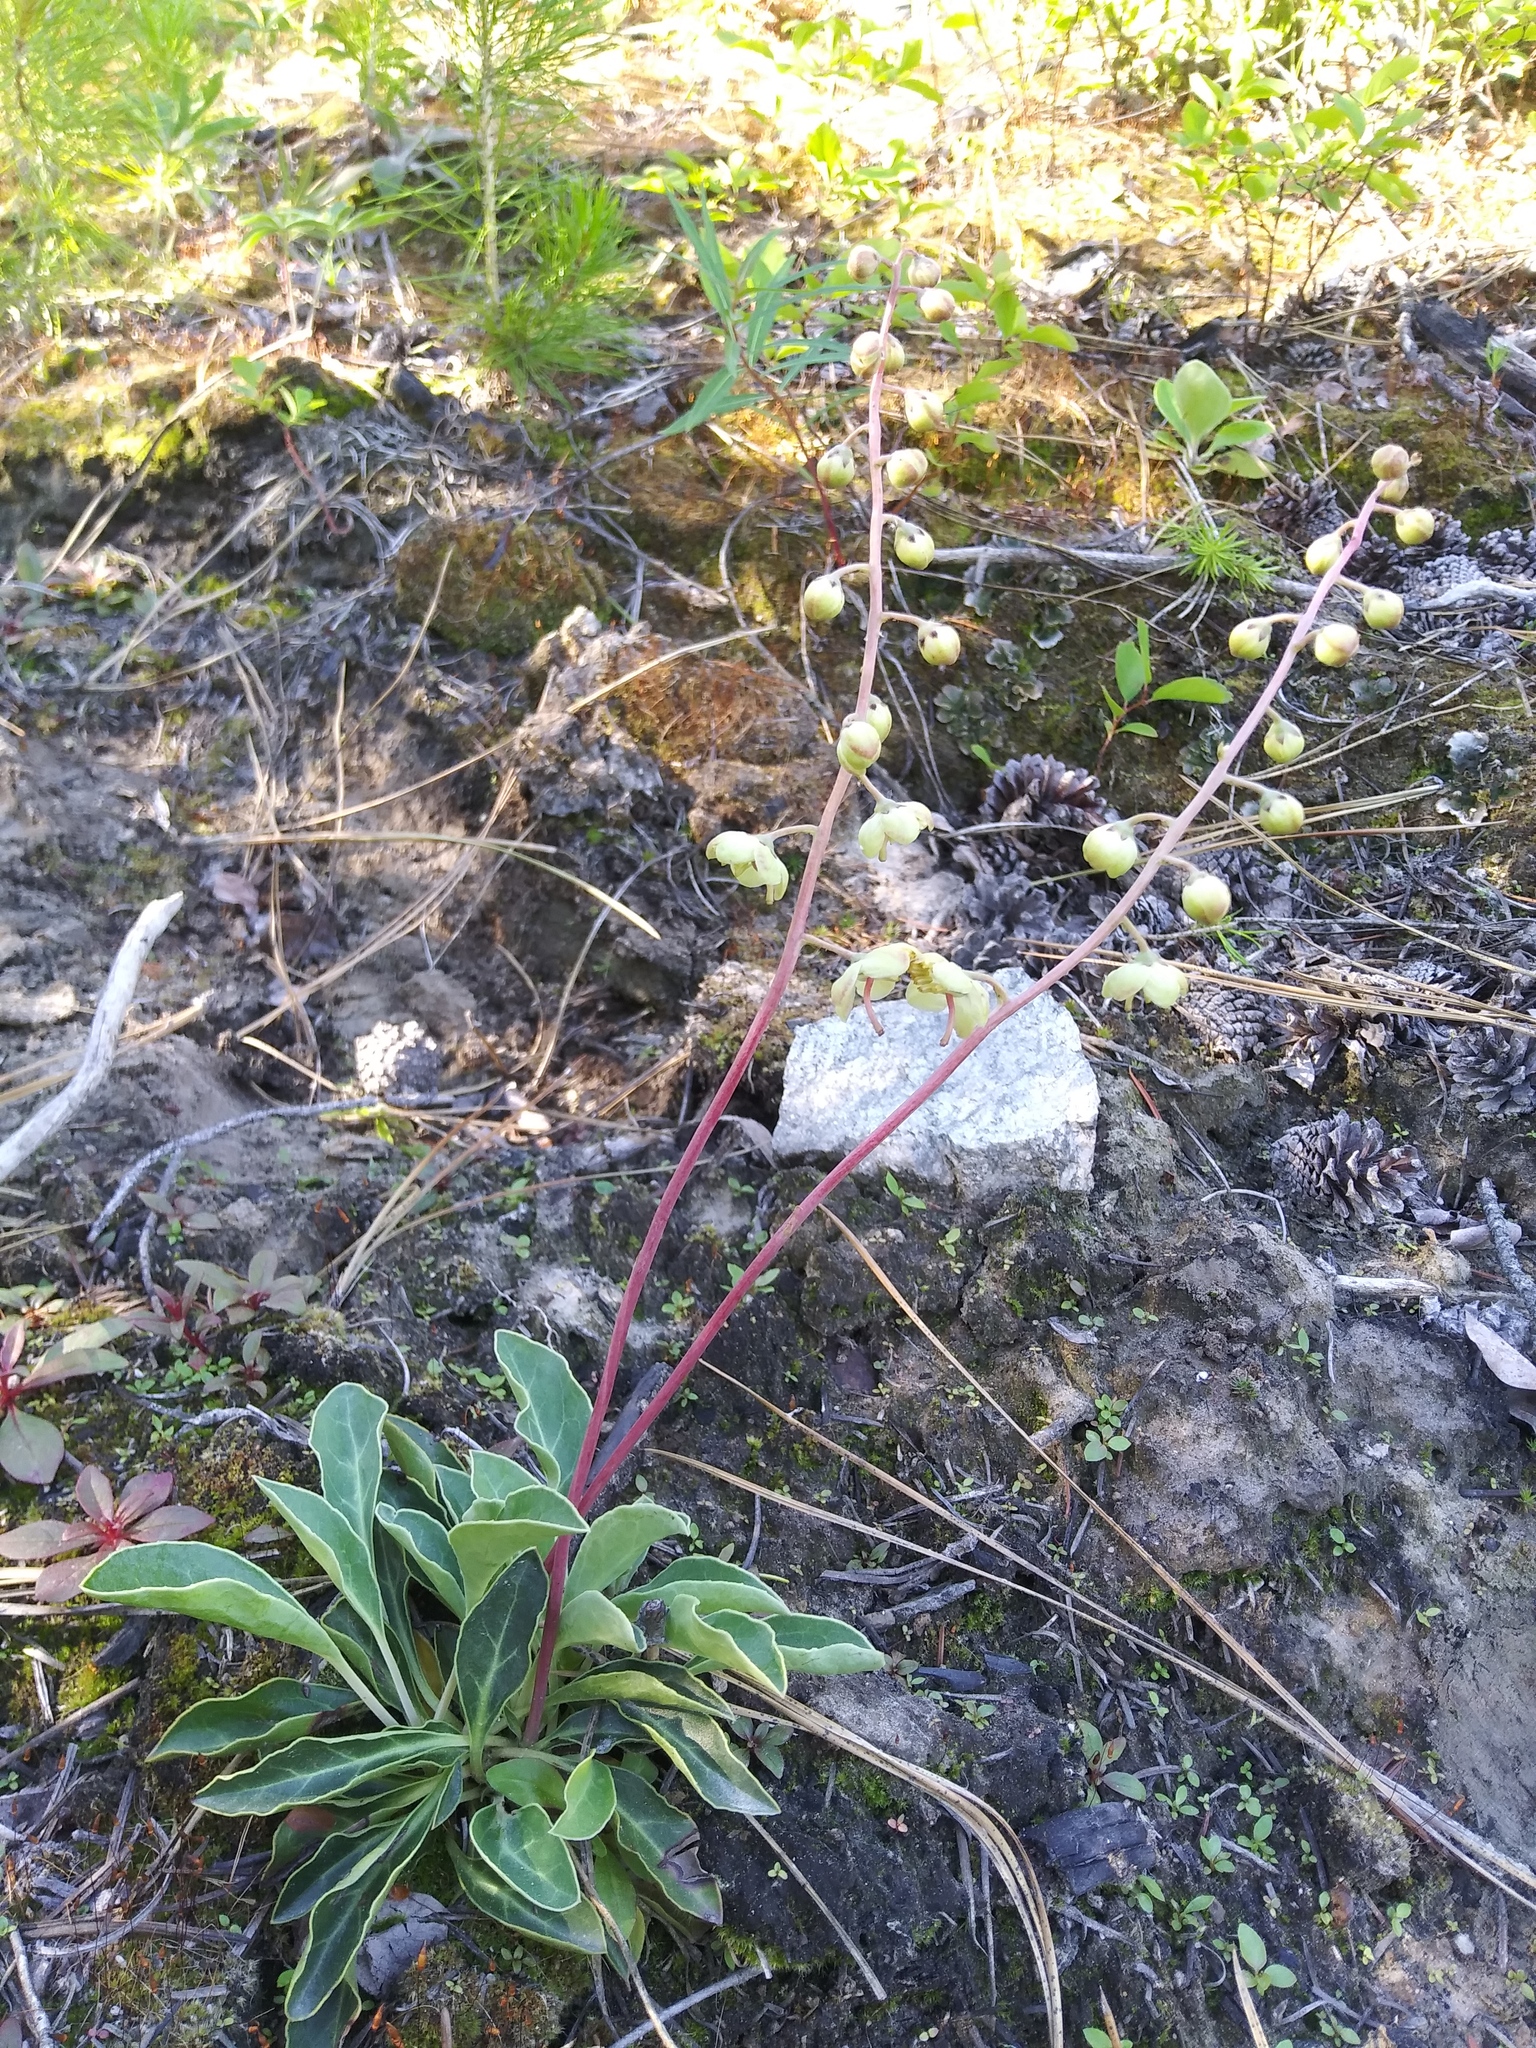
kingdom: Plantae
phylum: Tracheophyta
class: Magnoliopsida
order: Ericales
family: Ericaceae
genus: Pyrola
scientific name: Pyrola dentata
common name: Tooth-leaved wintergreen
